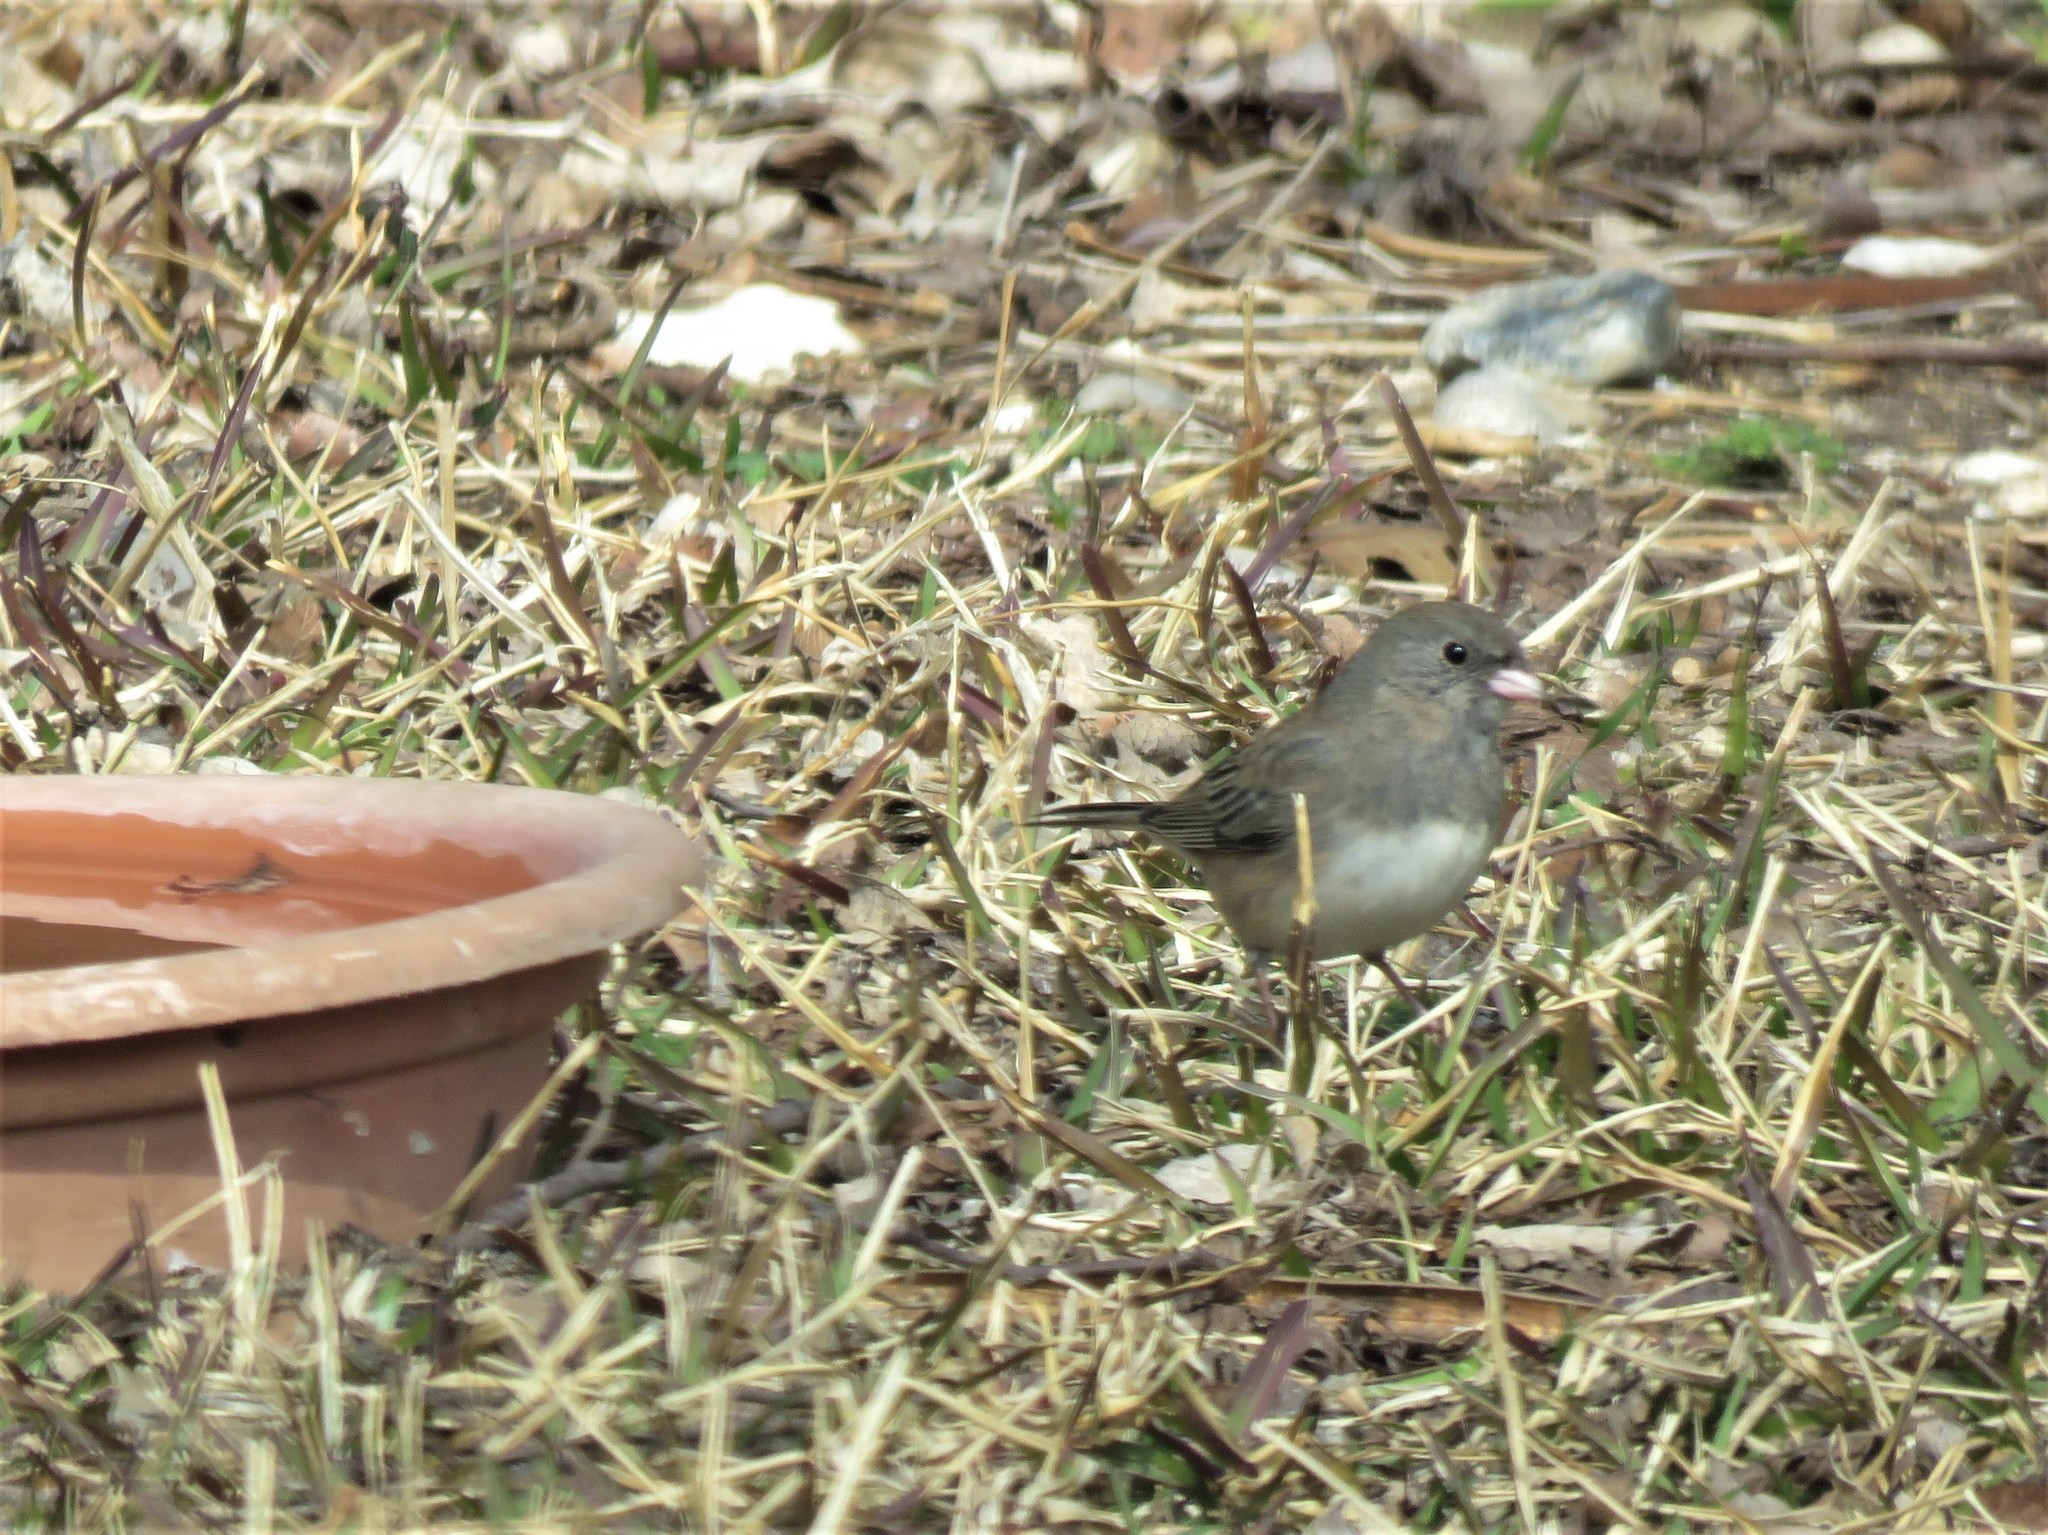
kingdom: Animalia
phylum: Chordata
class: Aves
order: Passeriformes
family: Passerellidae
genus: Junco
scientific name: Junco hyemalis
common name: Dark-eyed junco
